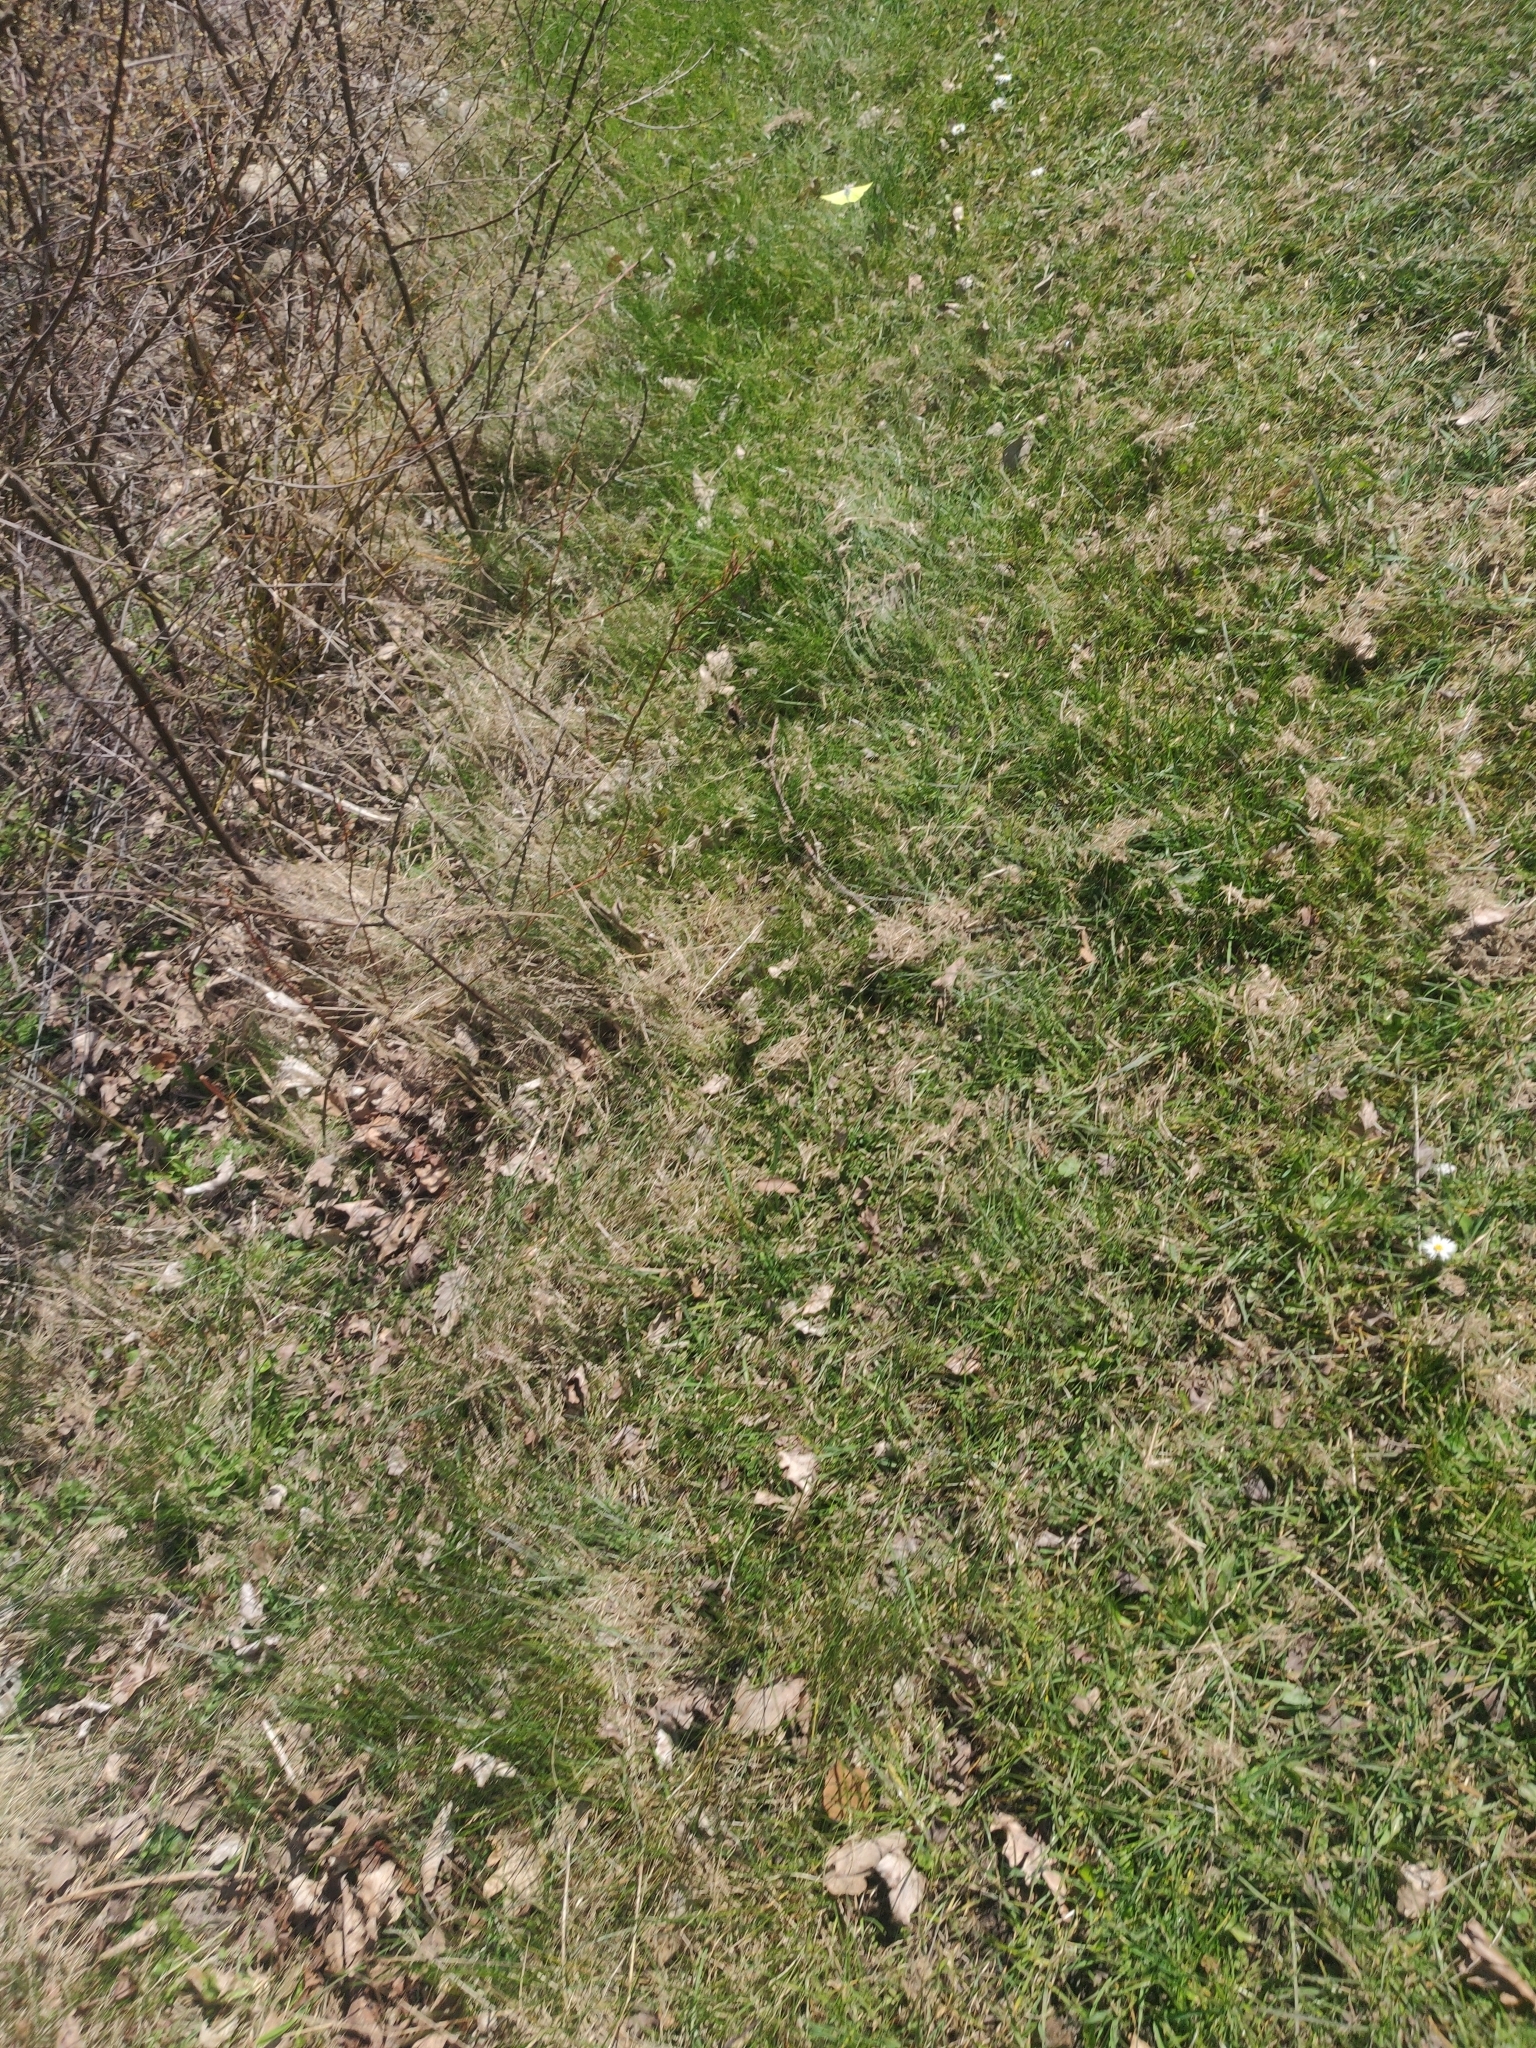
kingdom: Animalia
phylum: Arthropoda
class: Insecta
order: Lepidoptera
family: Pieridae
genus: Gonepteryx
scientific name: Gonepteryx rhamni
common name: Brimstone
